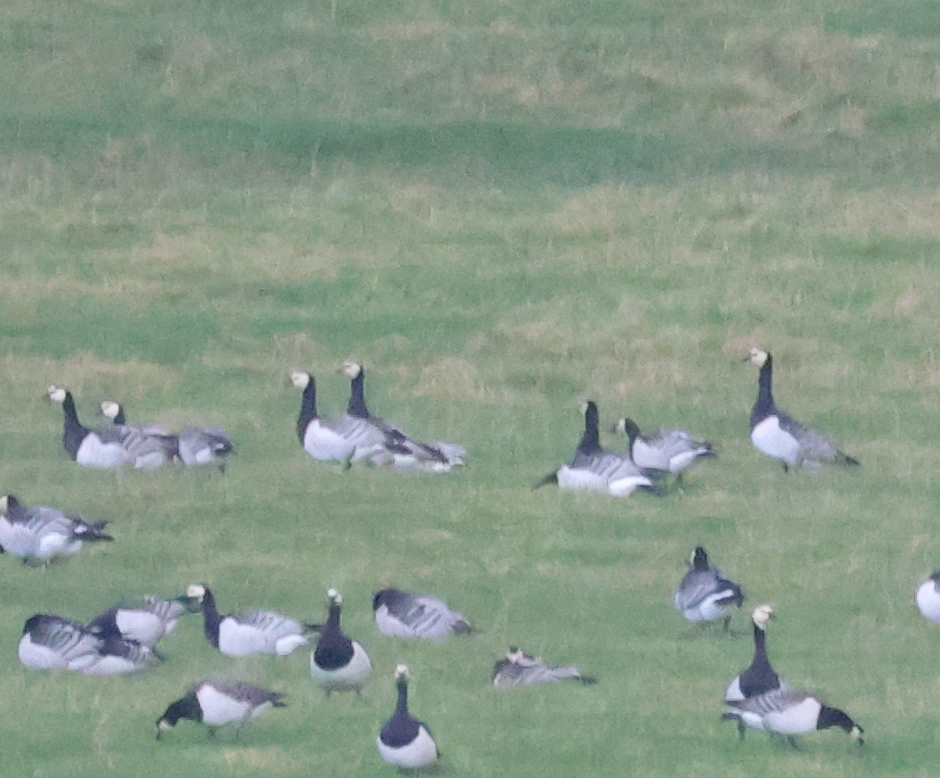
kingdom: Animalia
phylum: Chordata
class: Aves
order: Anseriformes
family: Anatidae
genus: Branta
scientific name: Branta leucopsis
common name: Barnacle goose
